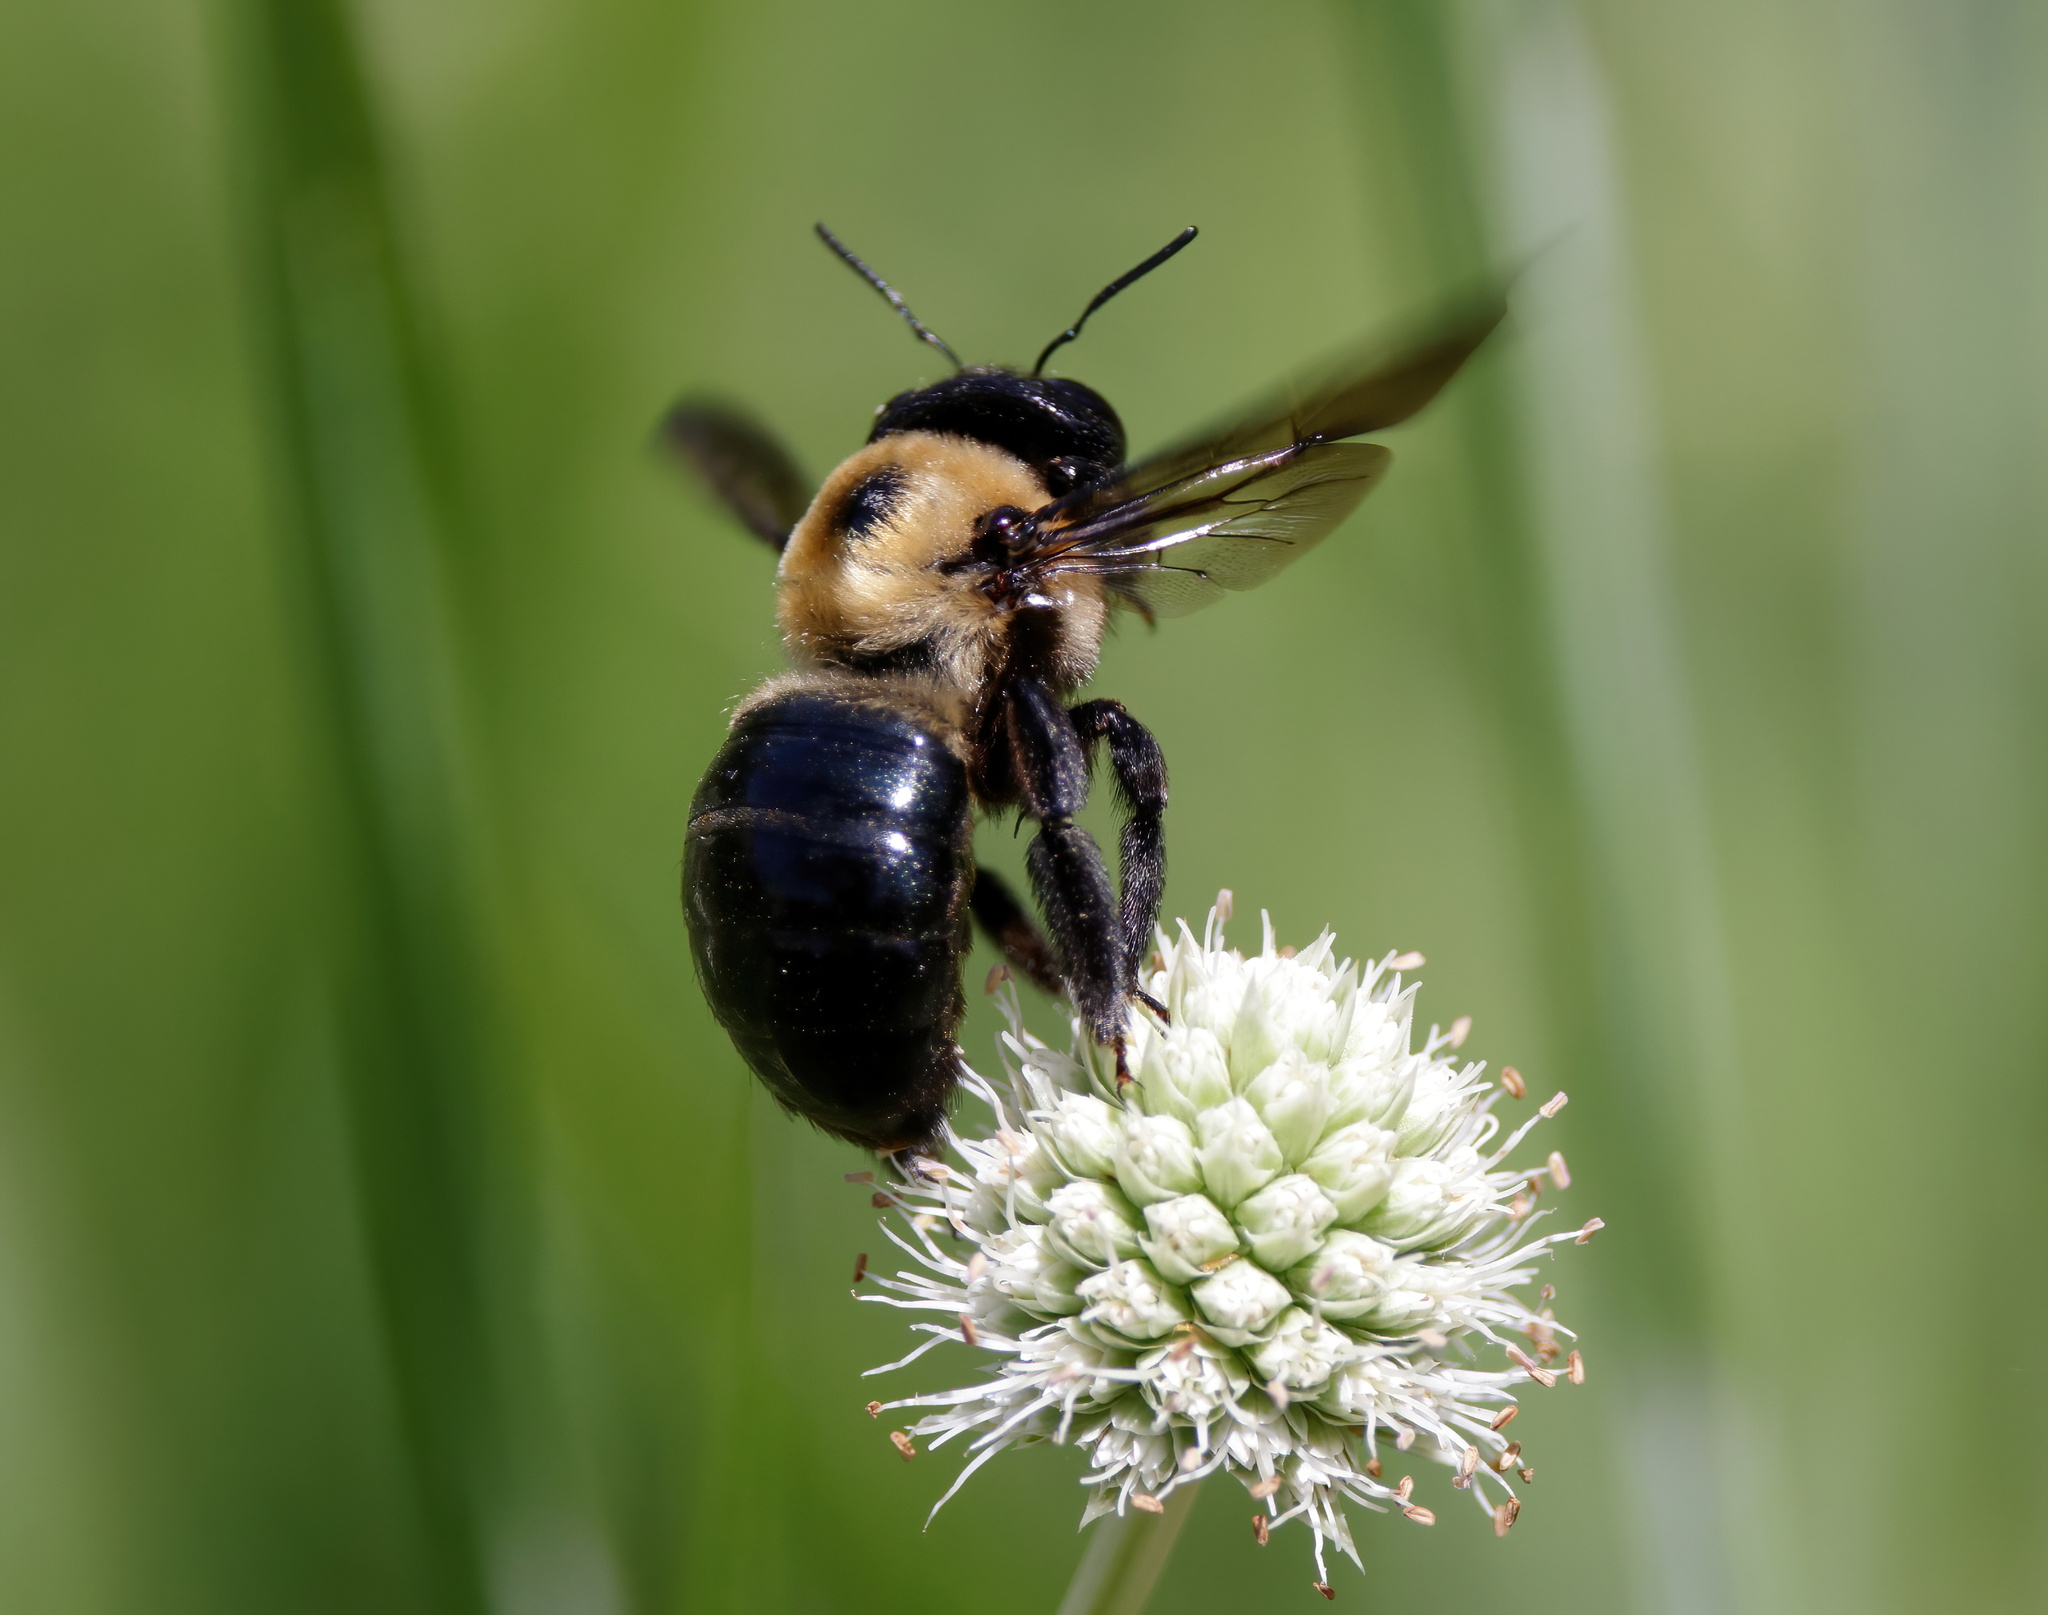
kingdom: Animalia
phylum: Arthropoda
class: Insecta
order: Hymenoptera
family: Apidae
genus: Xylocopa
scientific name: Xylocopa virginica
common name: Carpenter bee
